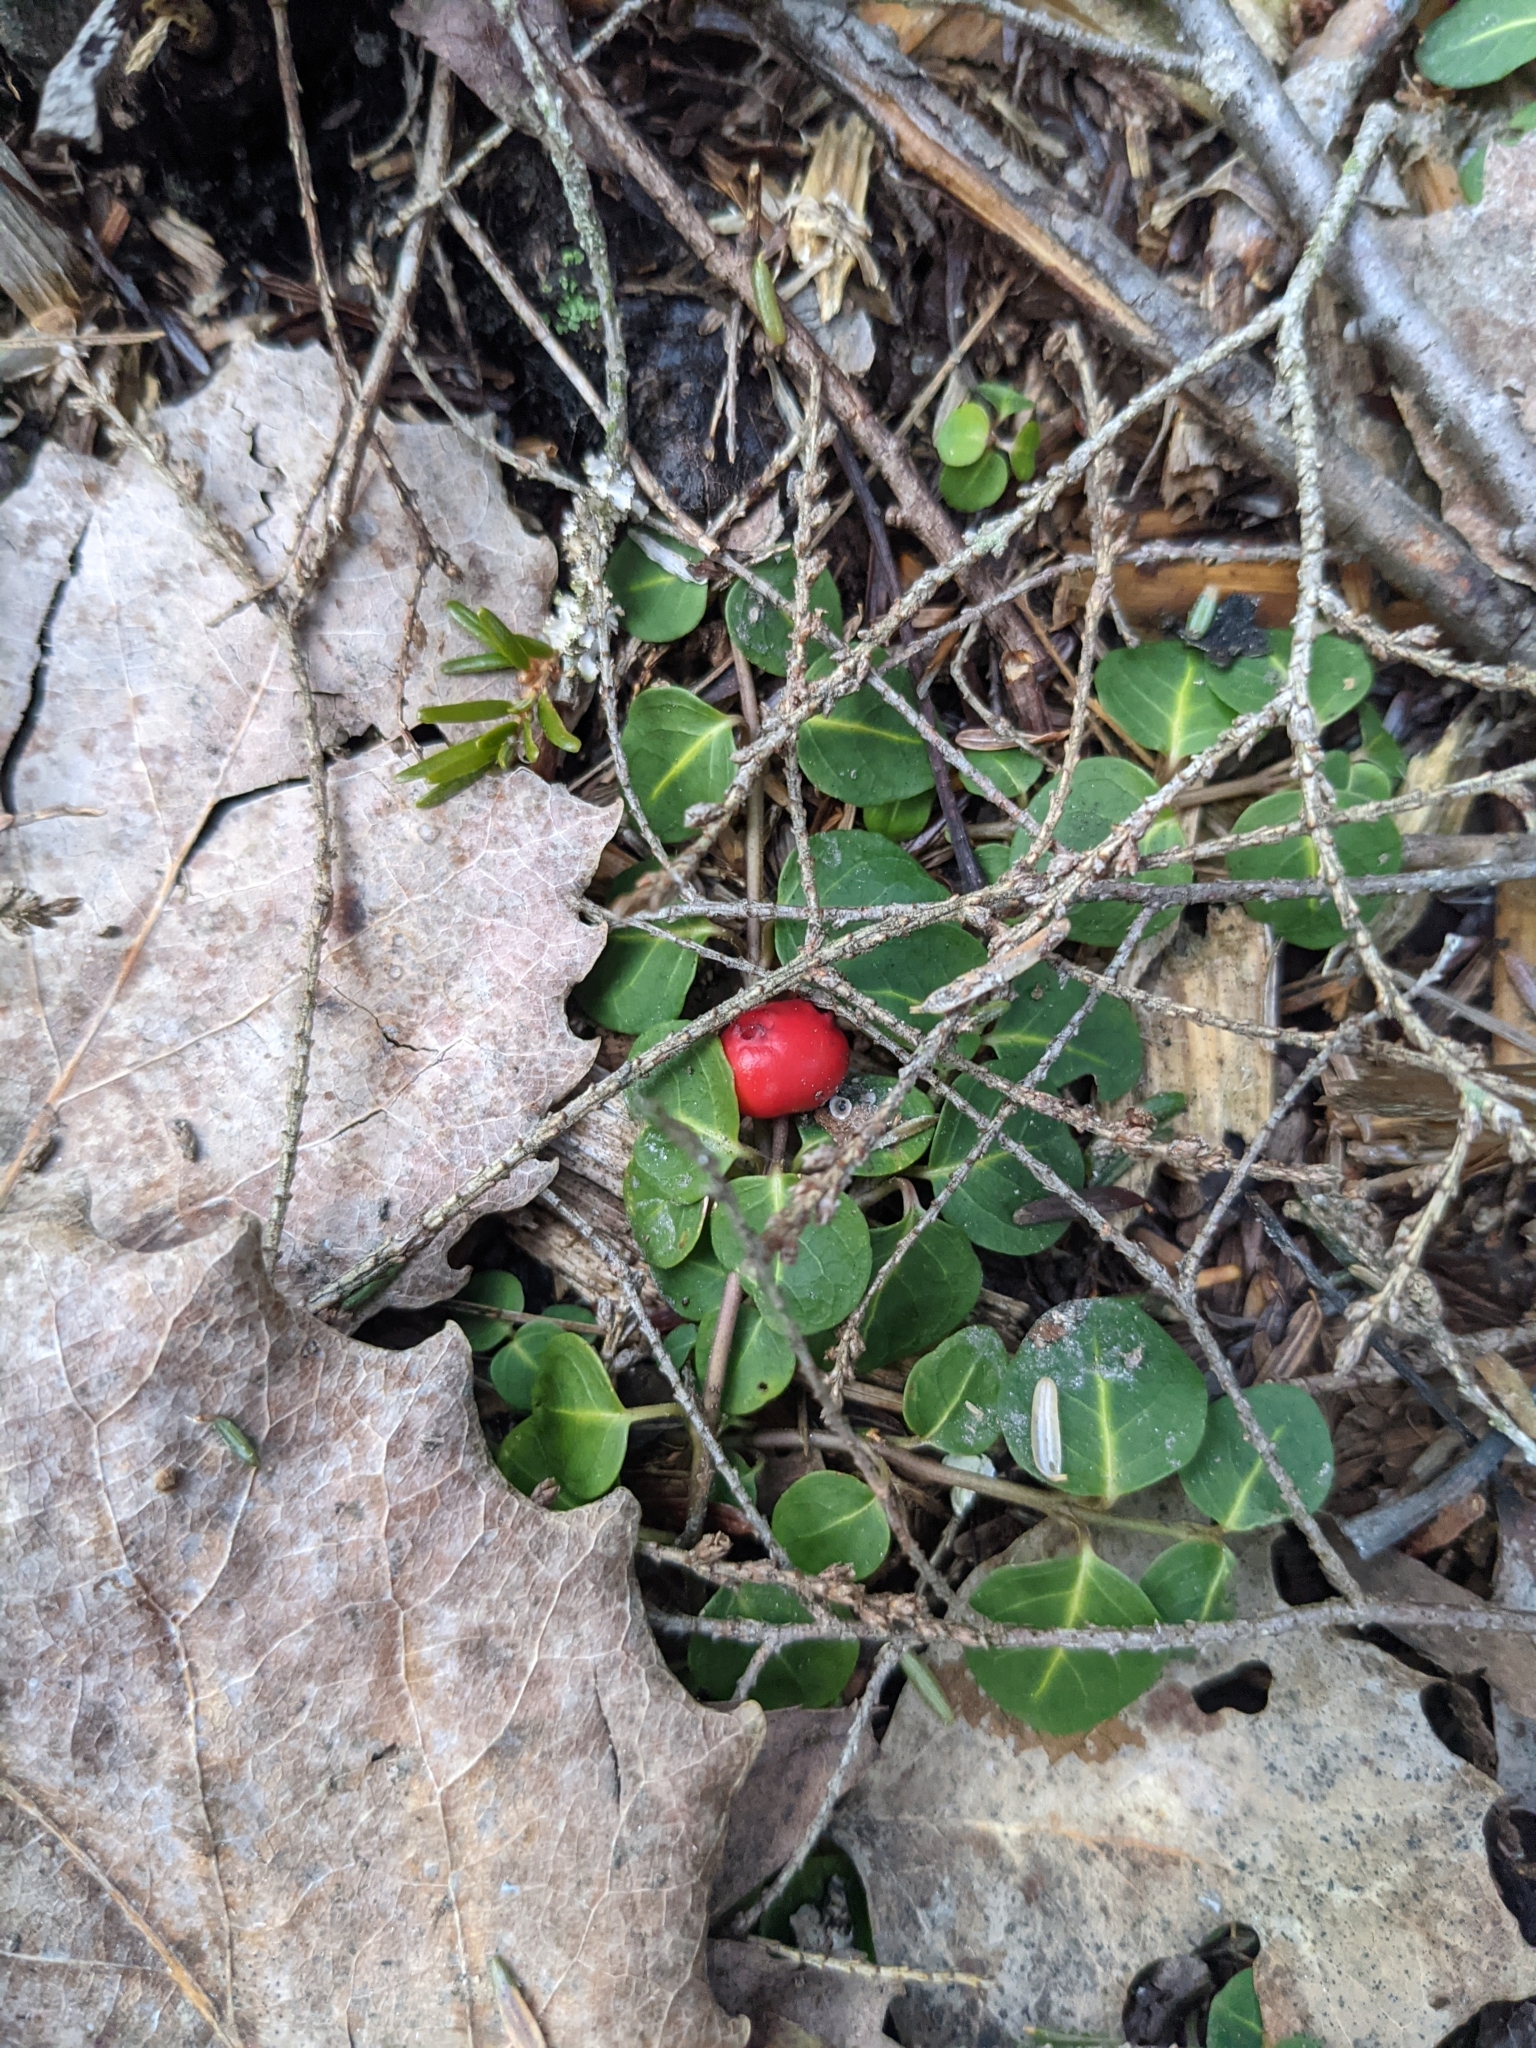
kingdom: Plantae
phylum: Tracheophyta
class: Magnoliopsida
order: Gentianales
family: Rubiaceae
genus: Mitchella
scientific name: Mitchella repens
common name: Partridge-berry
